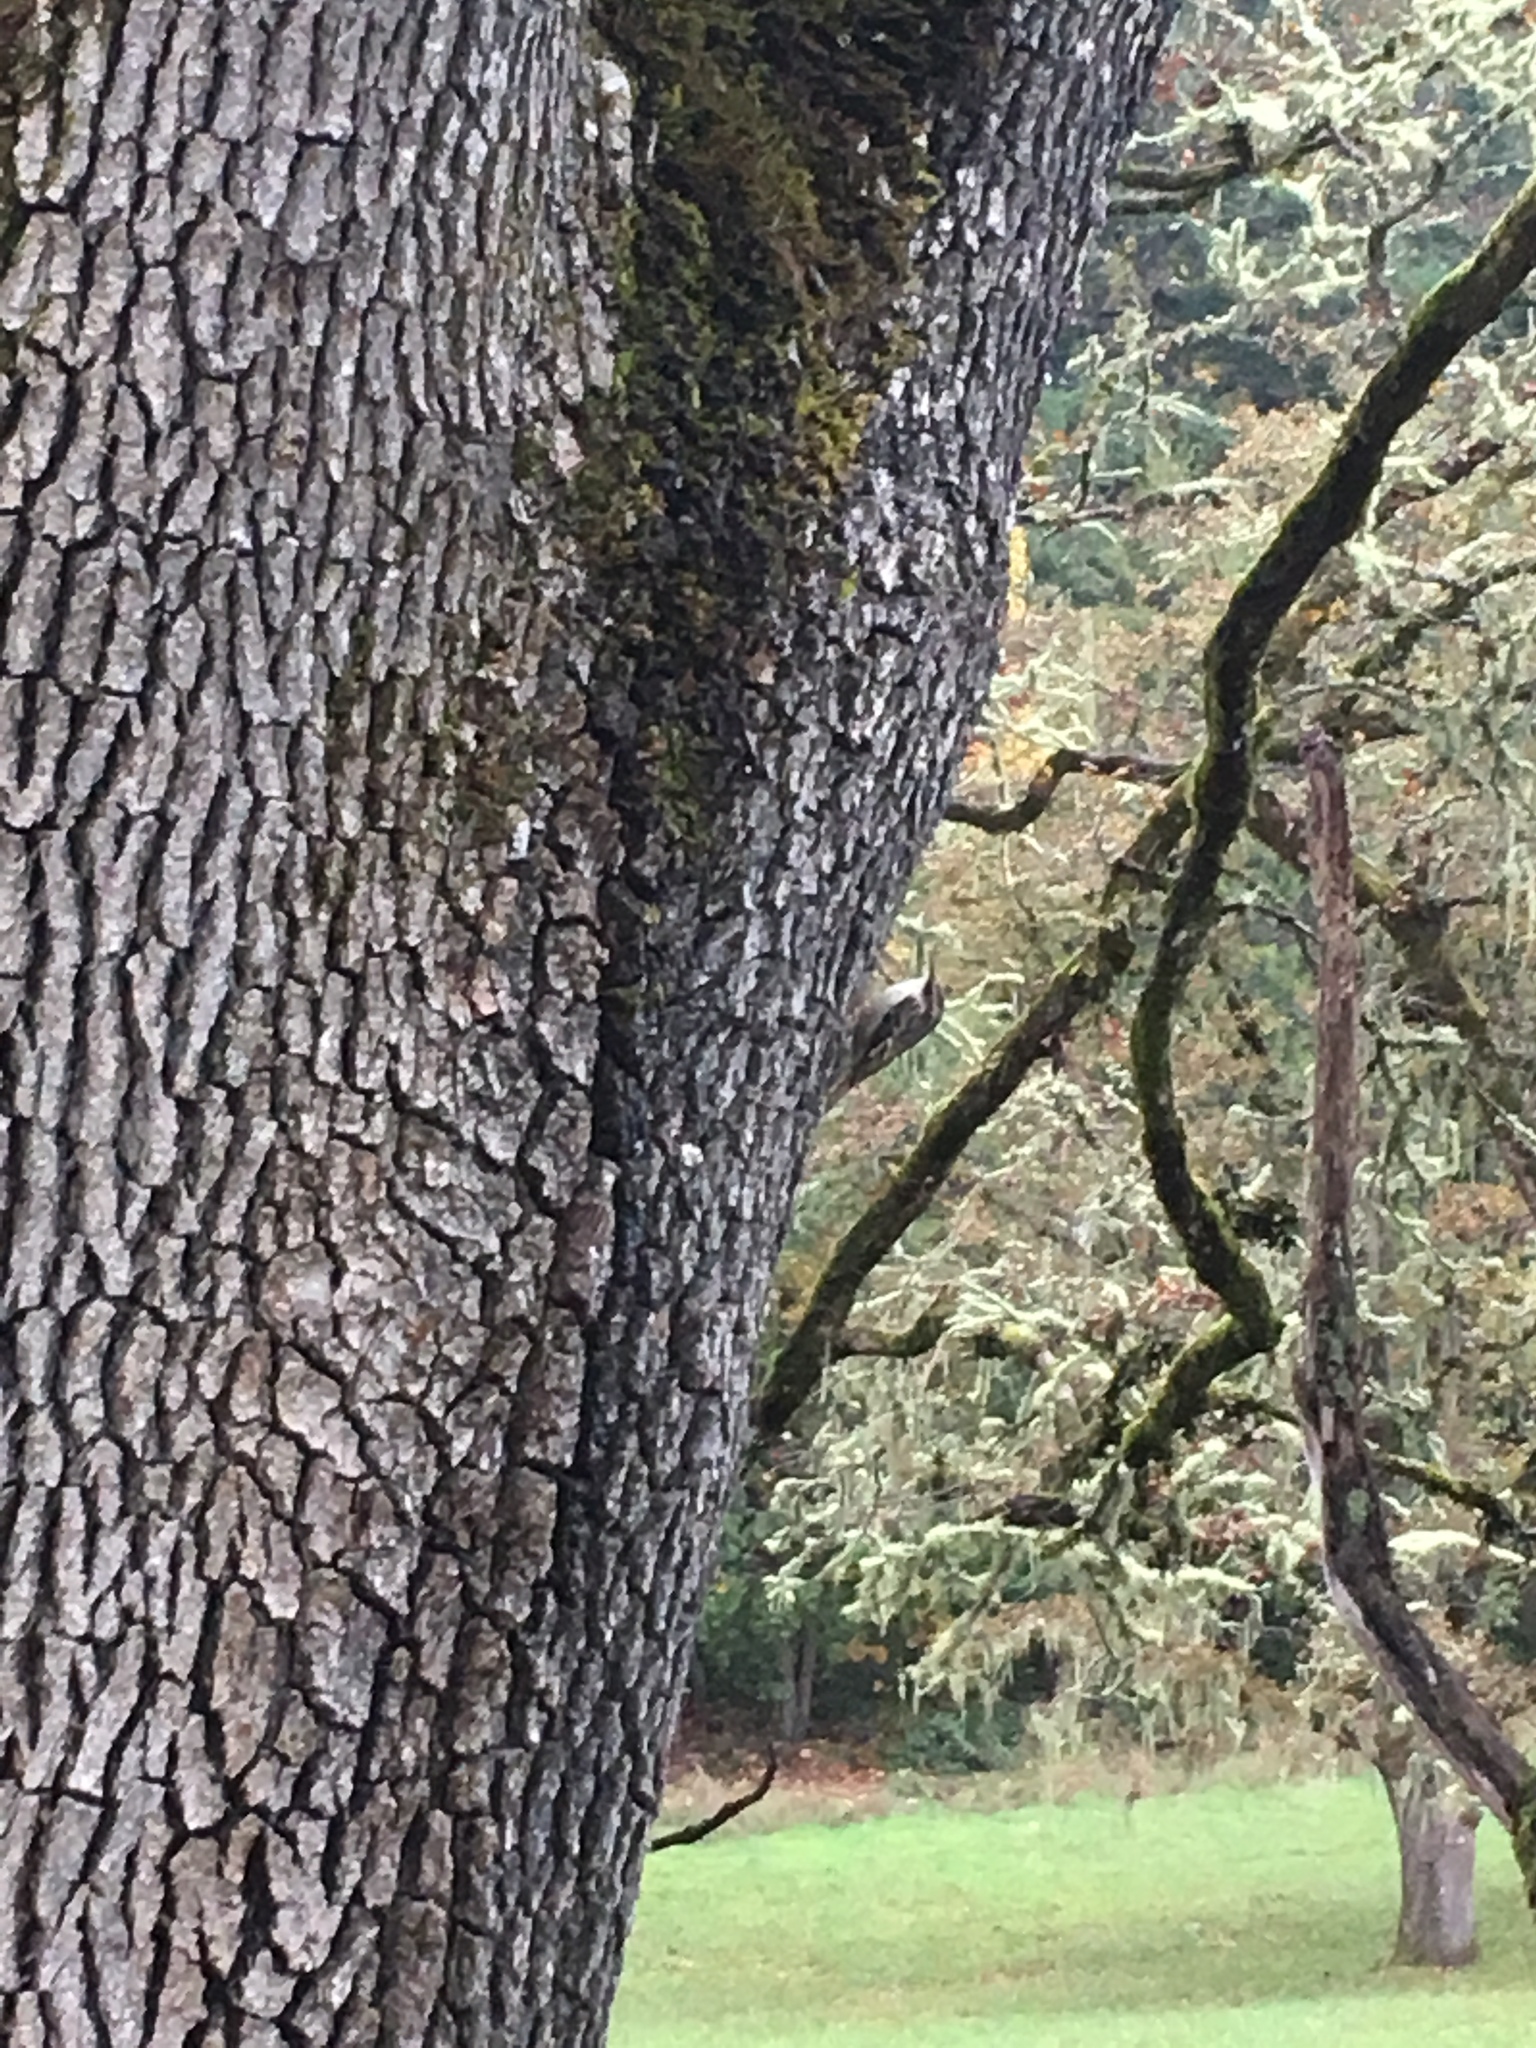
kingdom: Animalia
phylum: Chordata
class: Aves
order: Passeriformes
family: Certhiidae
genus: Certhia
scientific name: Certhia americana
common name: Brown creeper
